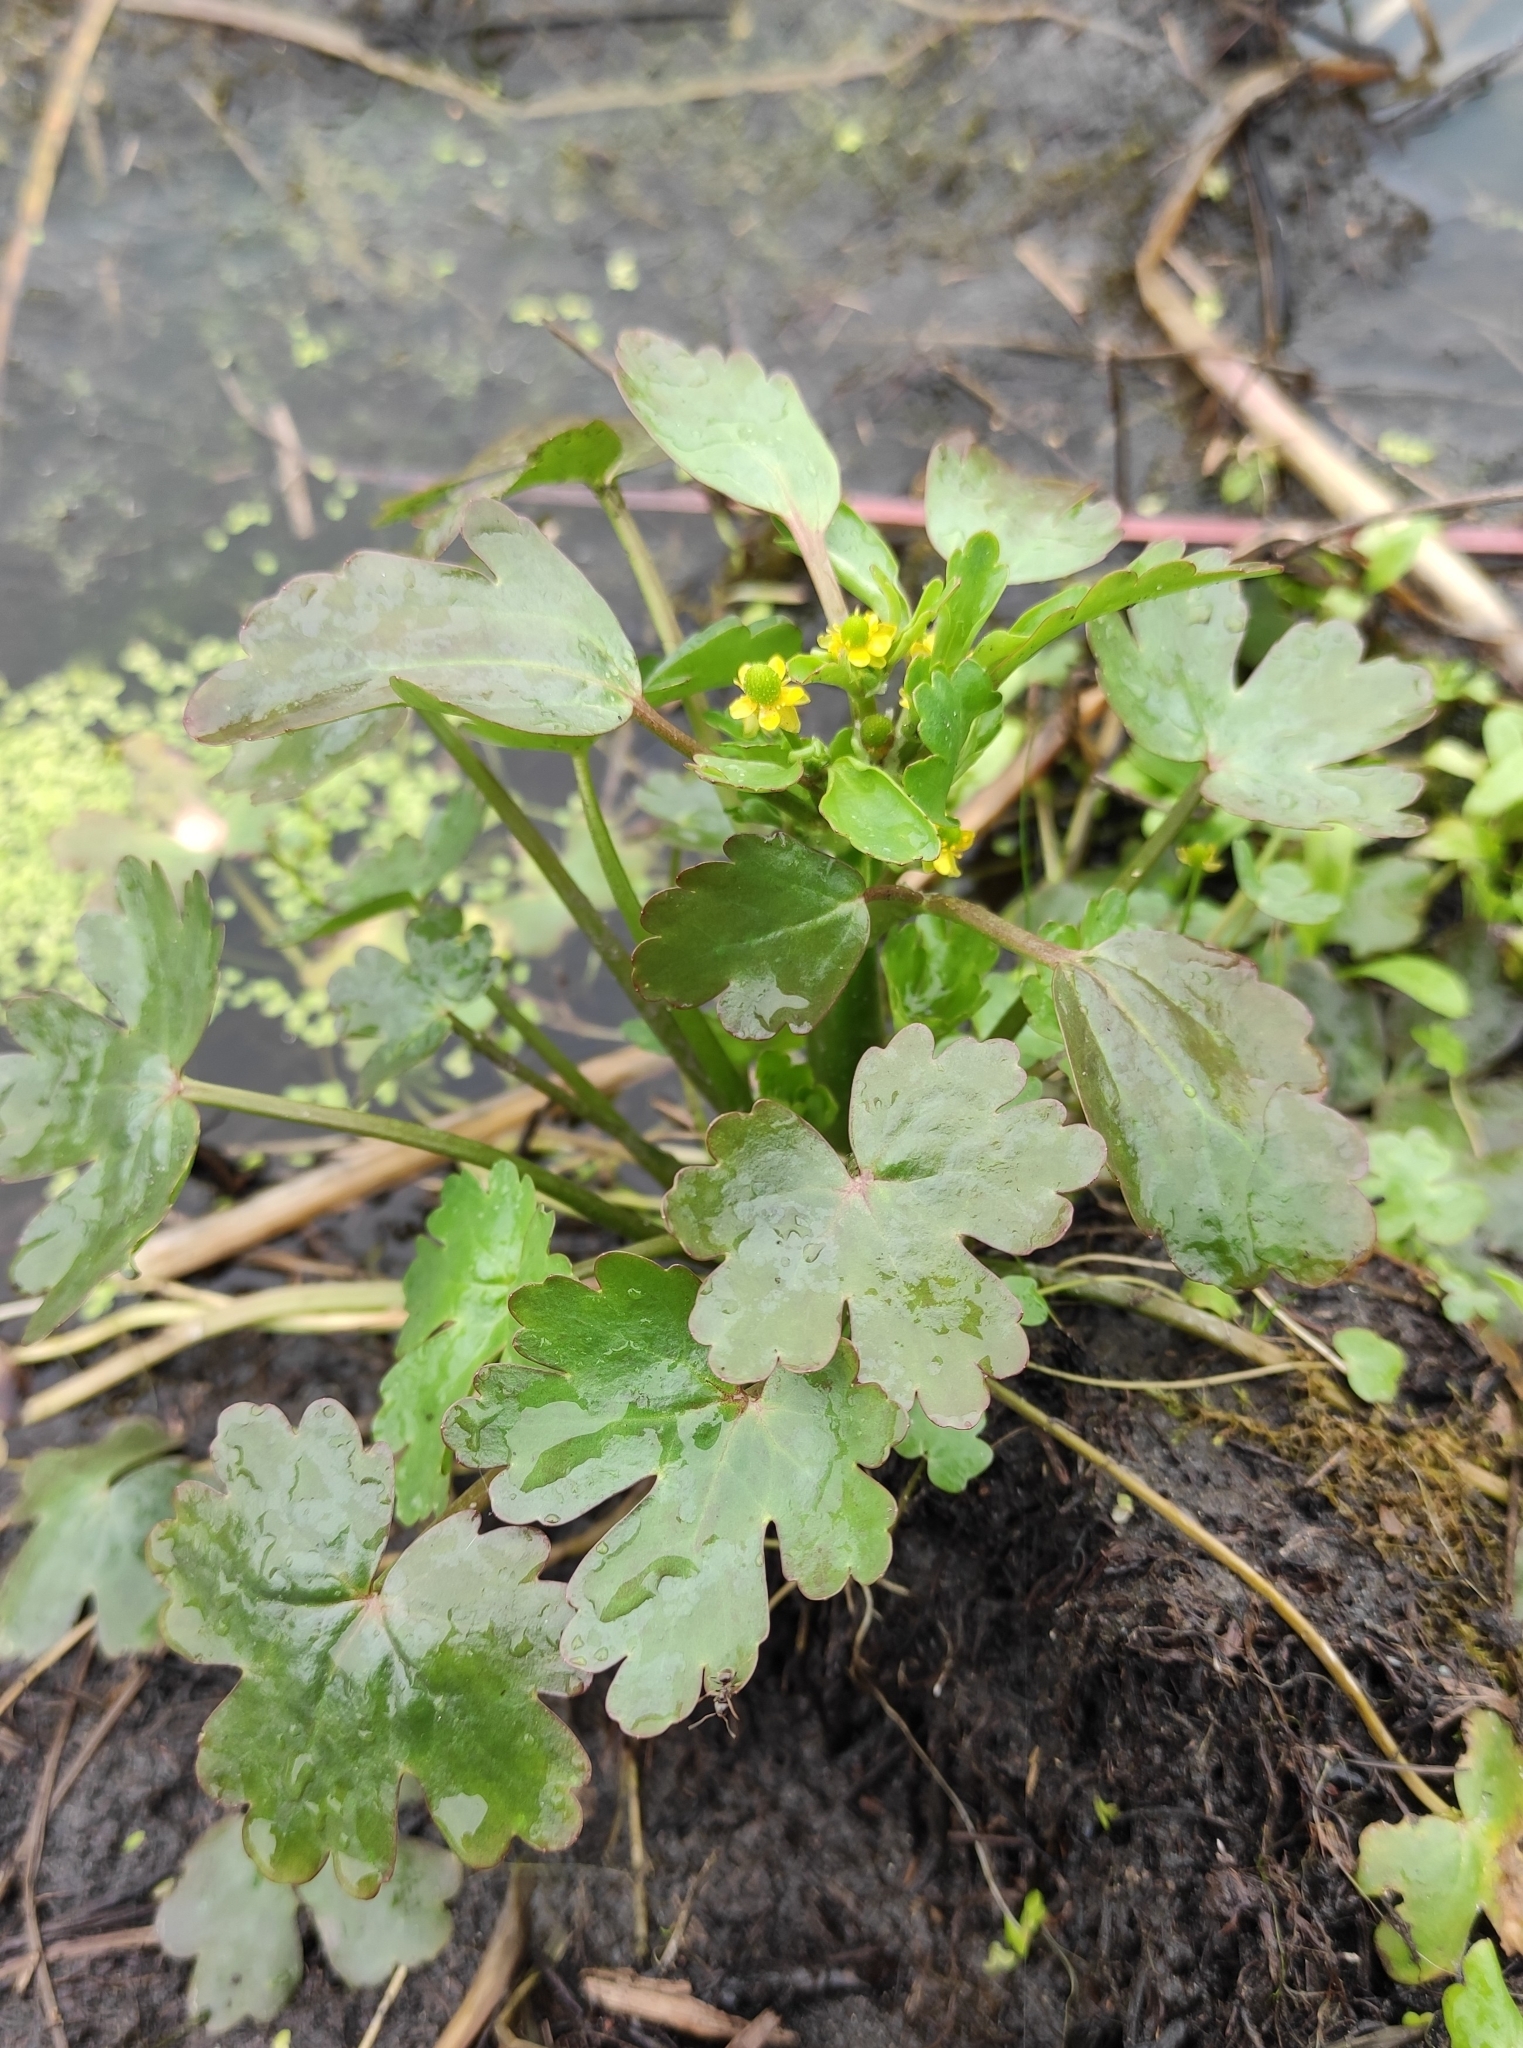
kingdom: Plantae
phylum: Tracheophyta
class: Magnoliopsida
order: Ranunculales
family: Ranunculaceae
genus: Ranunculus
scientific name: Ranunculus sceleratus
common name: Celery-leaved buttercup
